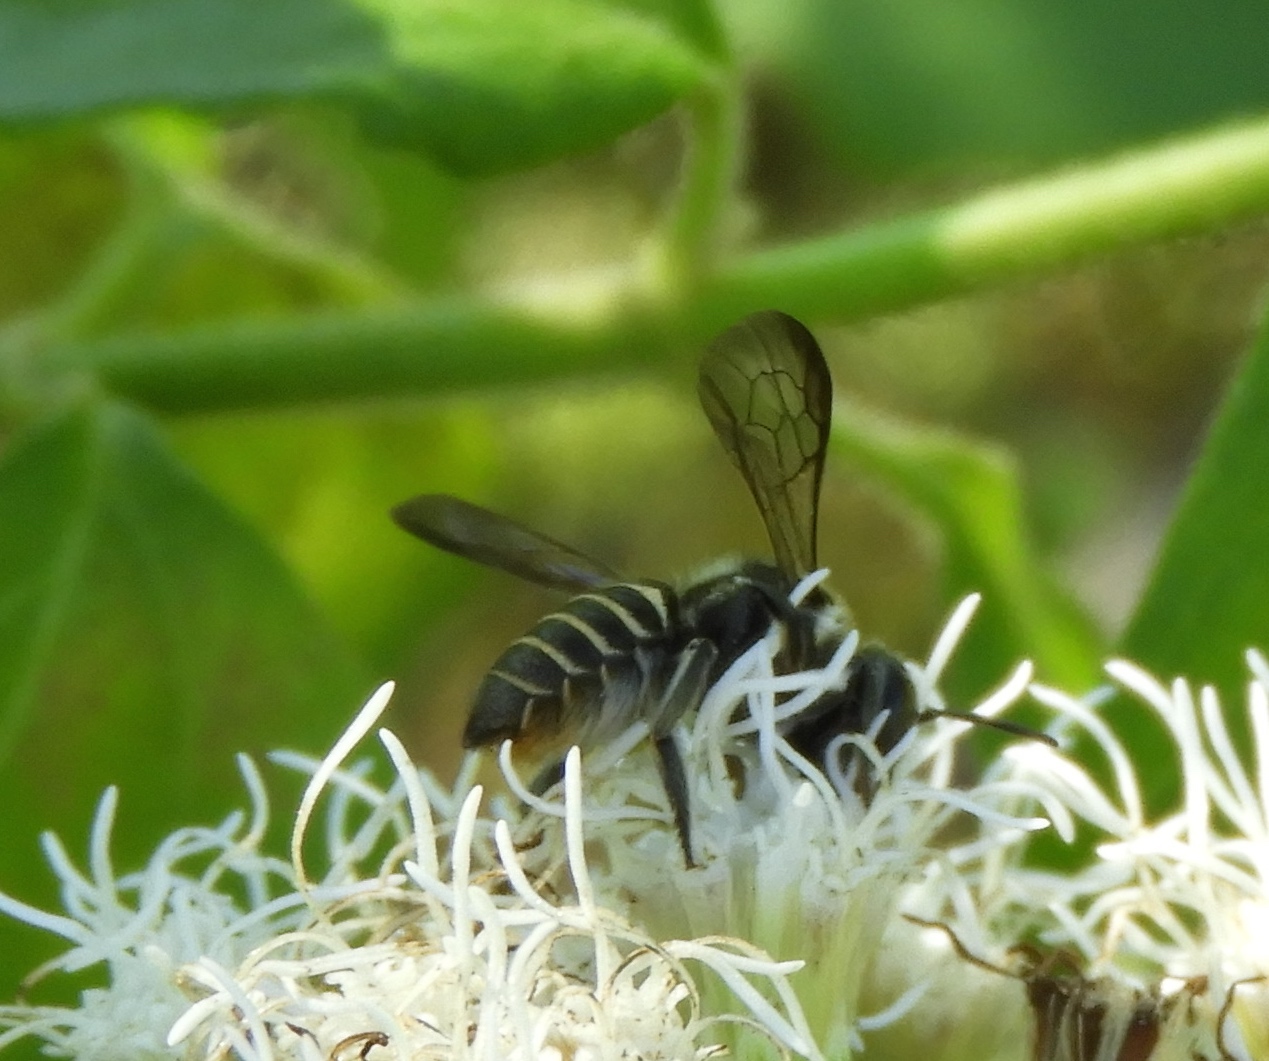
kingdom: Animalia
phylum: Arthropoda
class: Insecta
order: Hymenoptera
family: Megachilidae
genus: Megachile
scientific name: Megachile
